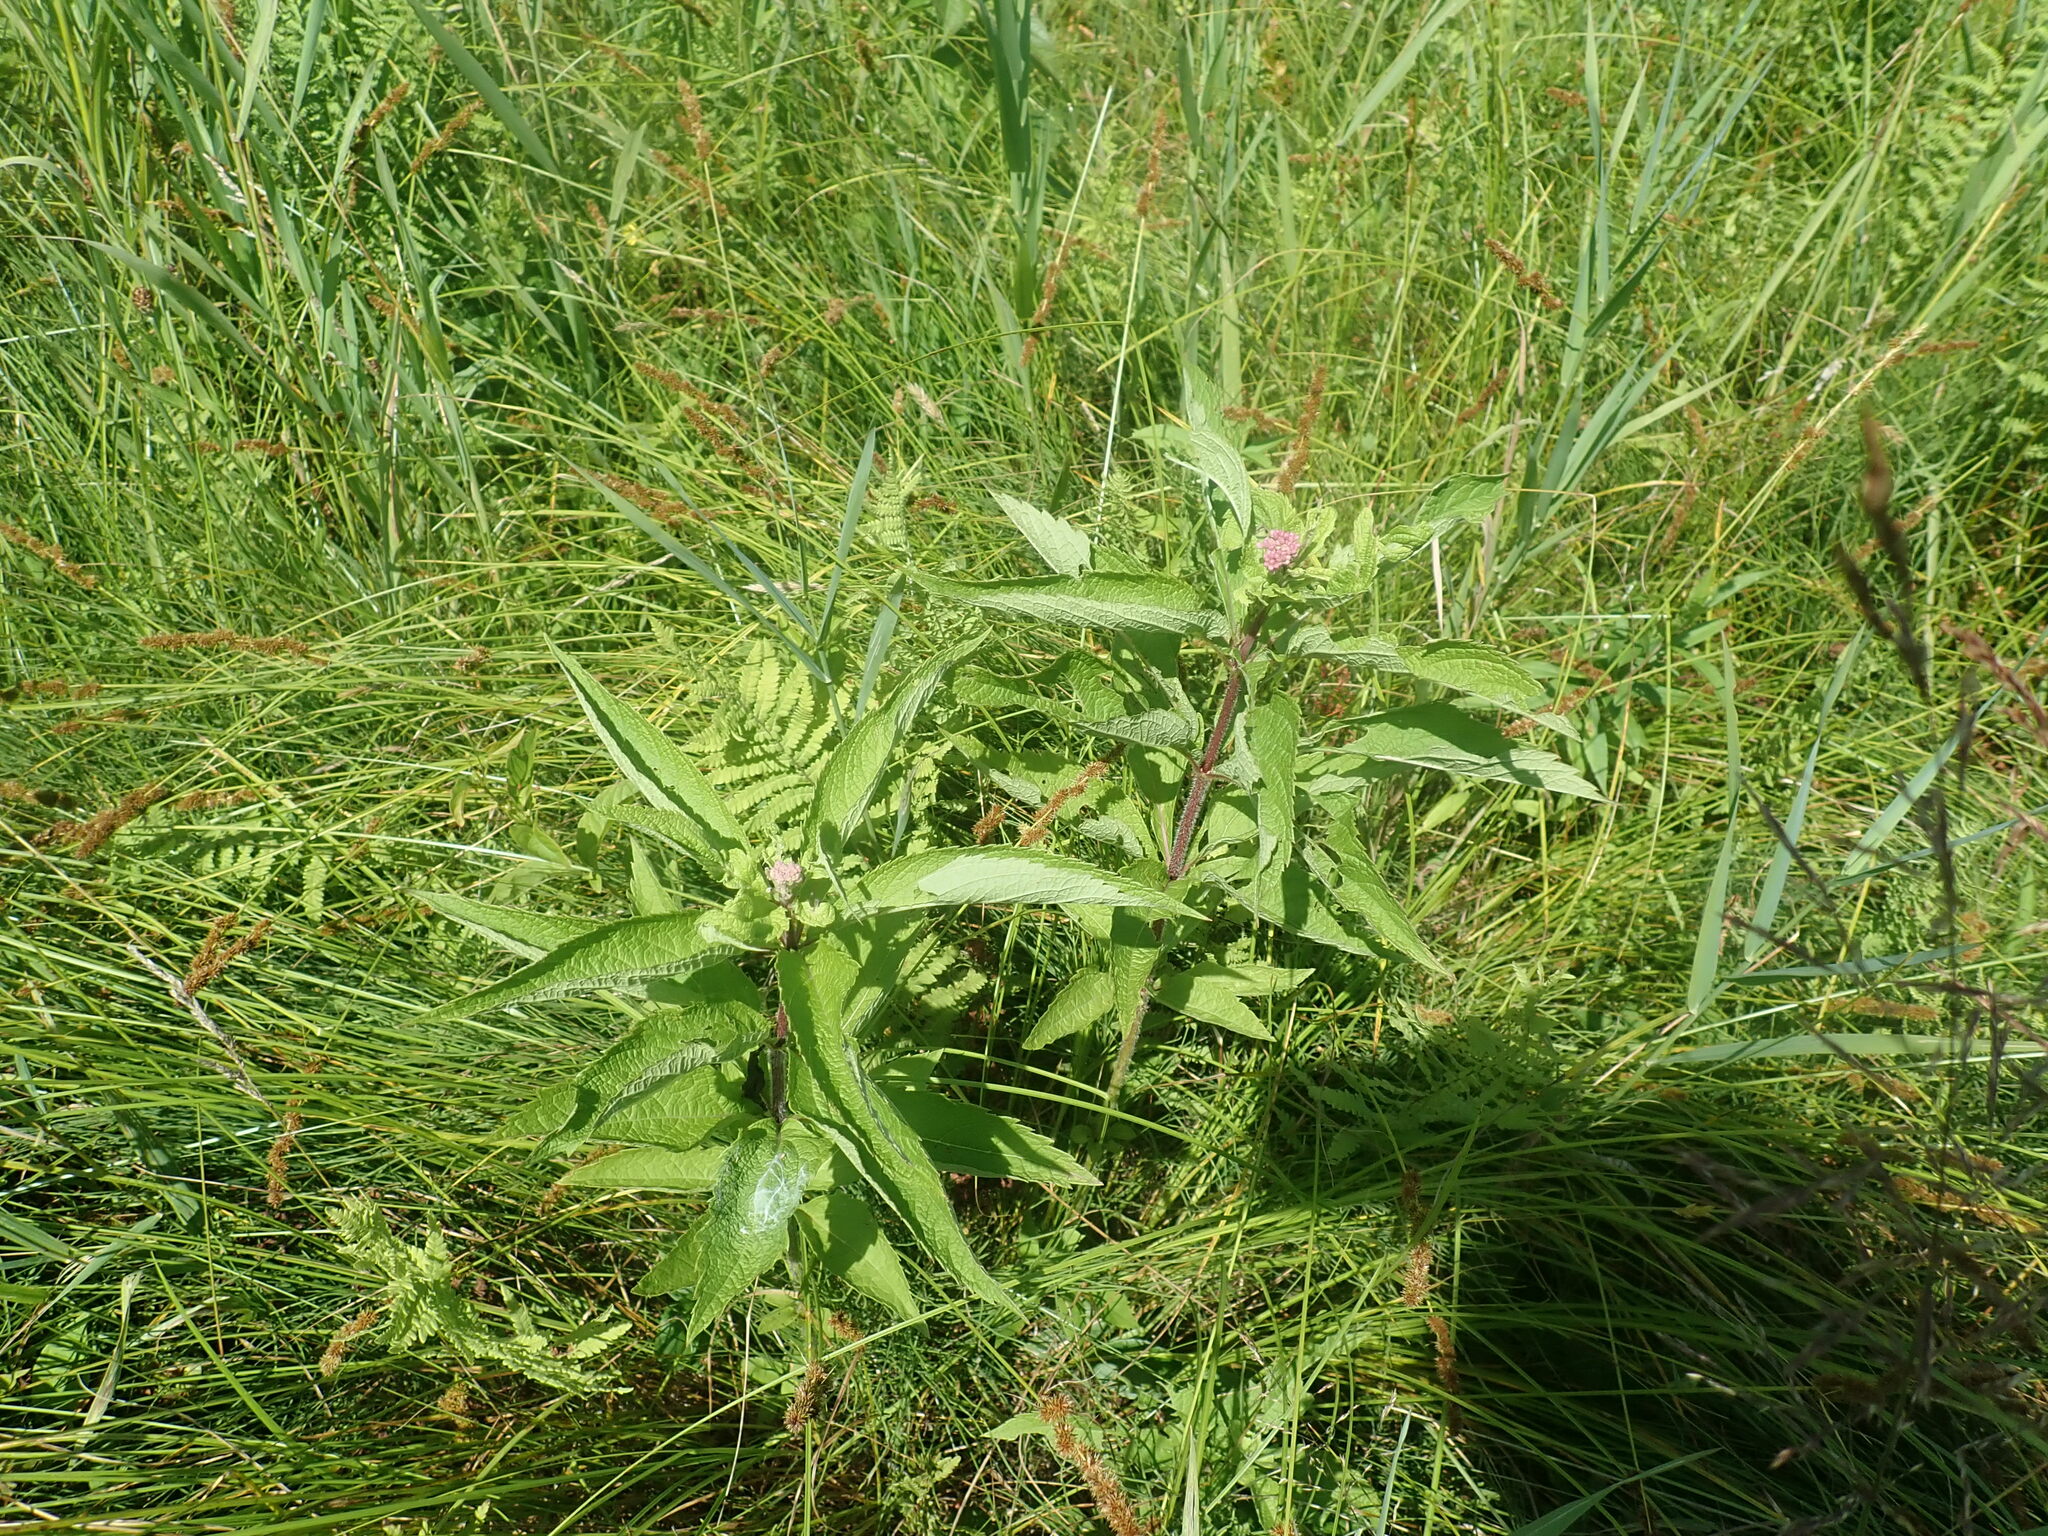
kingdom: Plantae
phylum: Tracheophyta
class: Magnoliopsida
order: Asterales
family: Asteraceae
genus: Eutrochium
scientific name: Eutrochium
